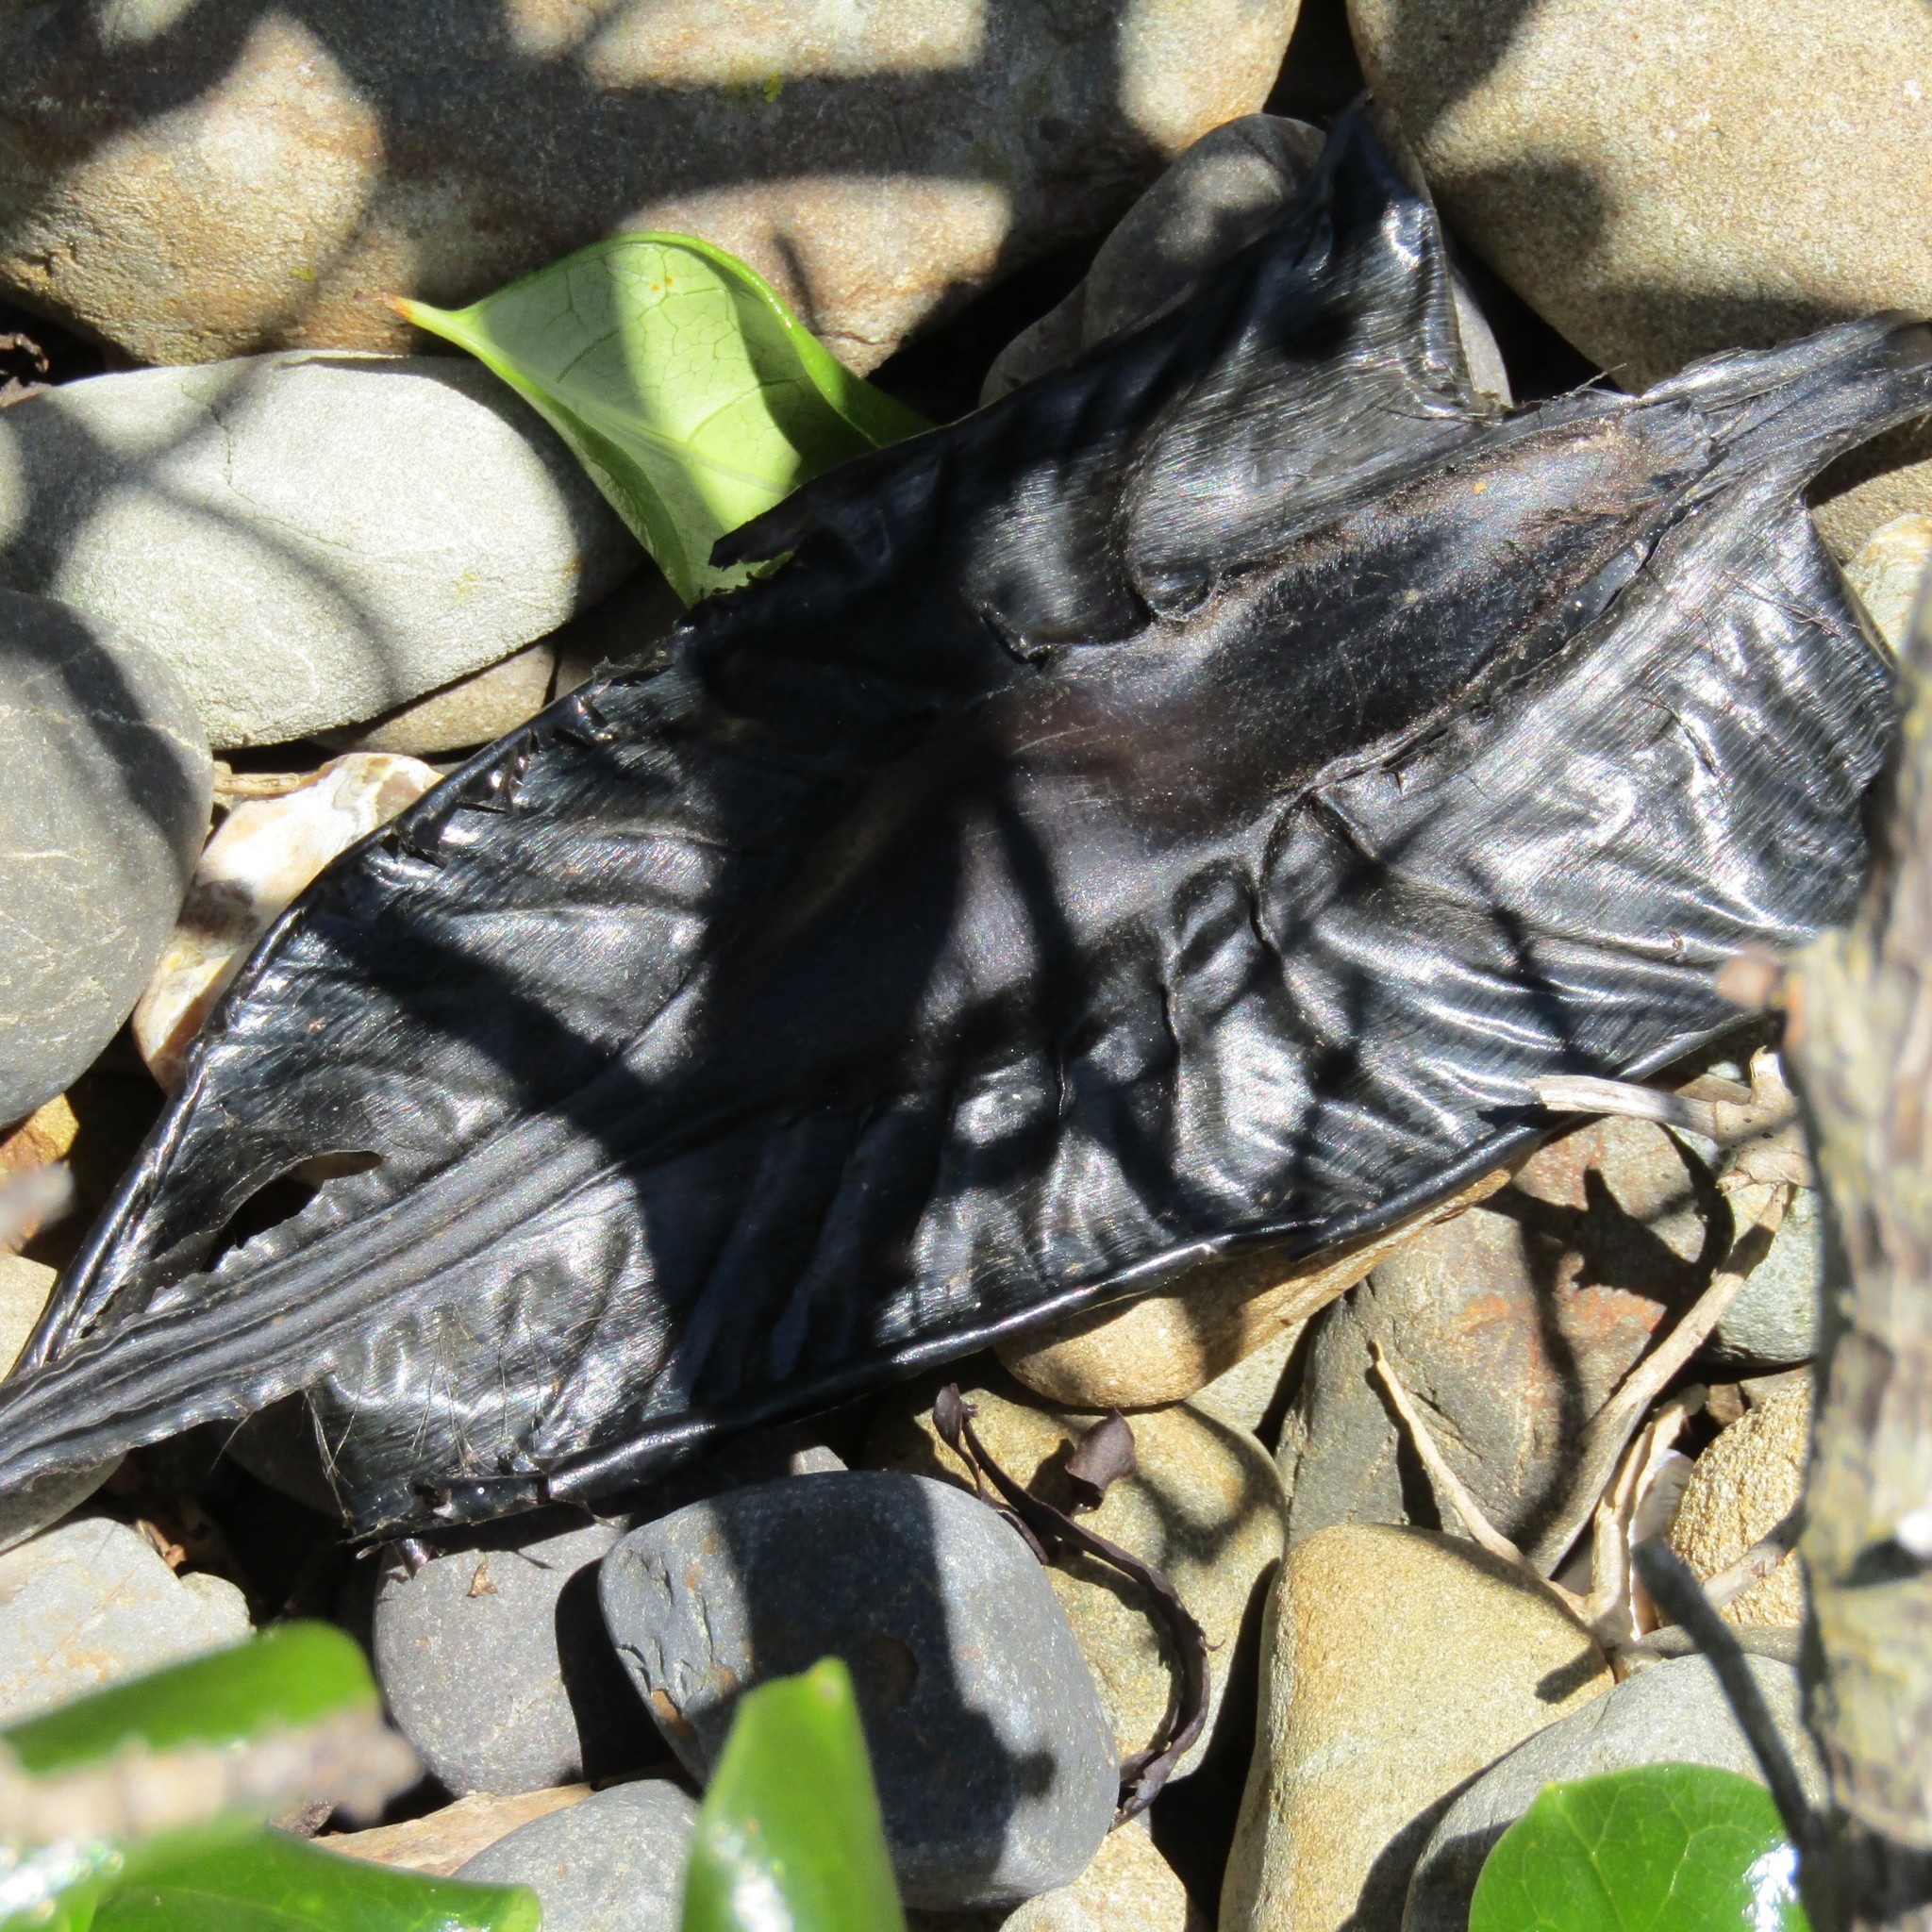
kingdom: Animalia
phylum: Chordata
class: Holocephali
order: Chimaeriformes
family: Callorhinchidae
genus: Callorhinchus
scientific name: Callorhinchus milii
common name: Elephant fish
